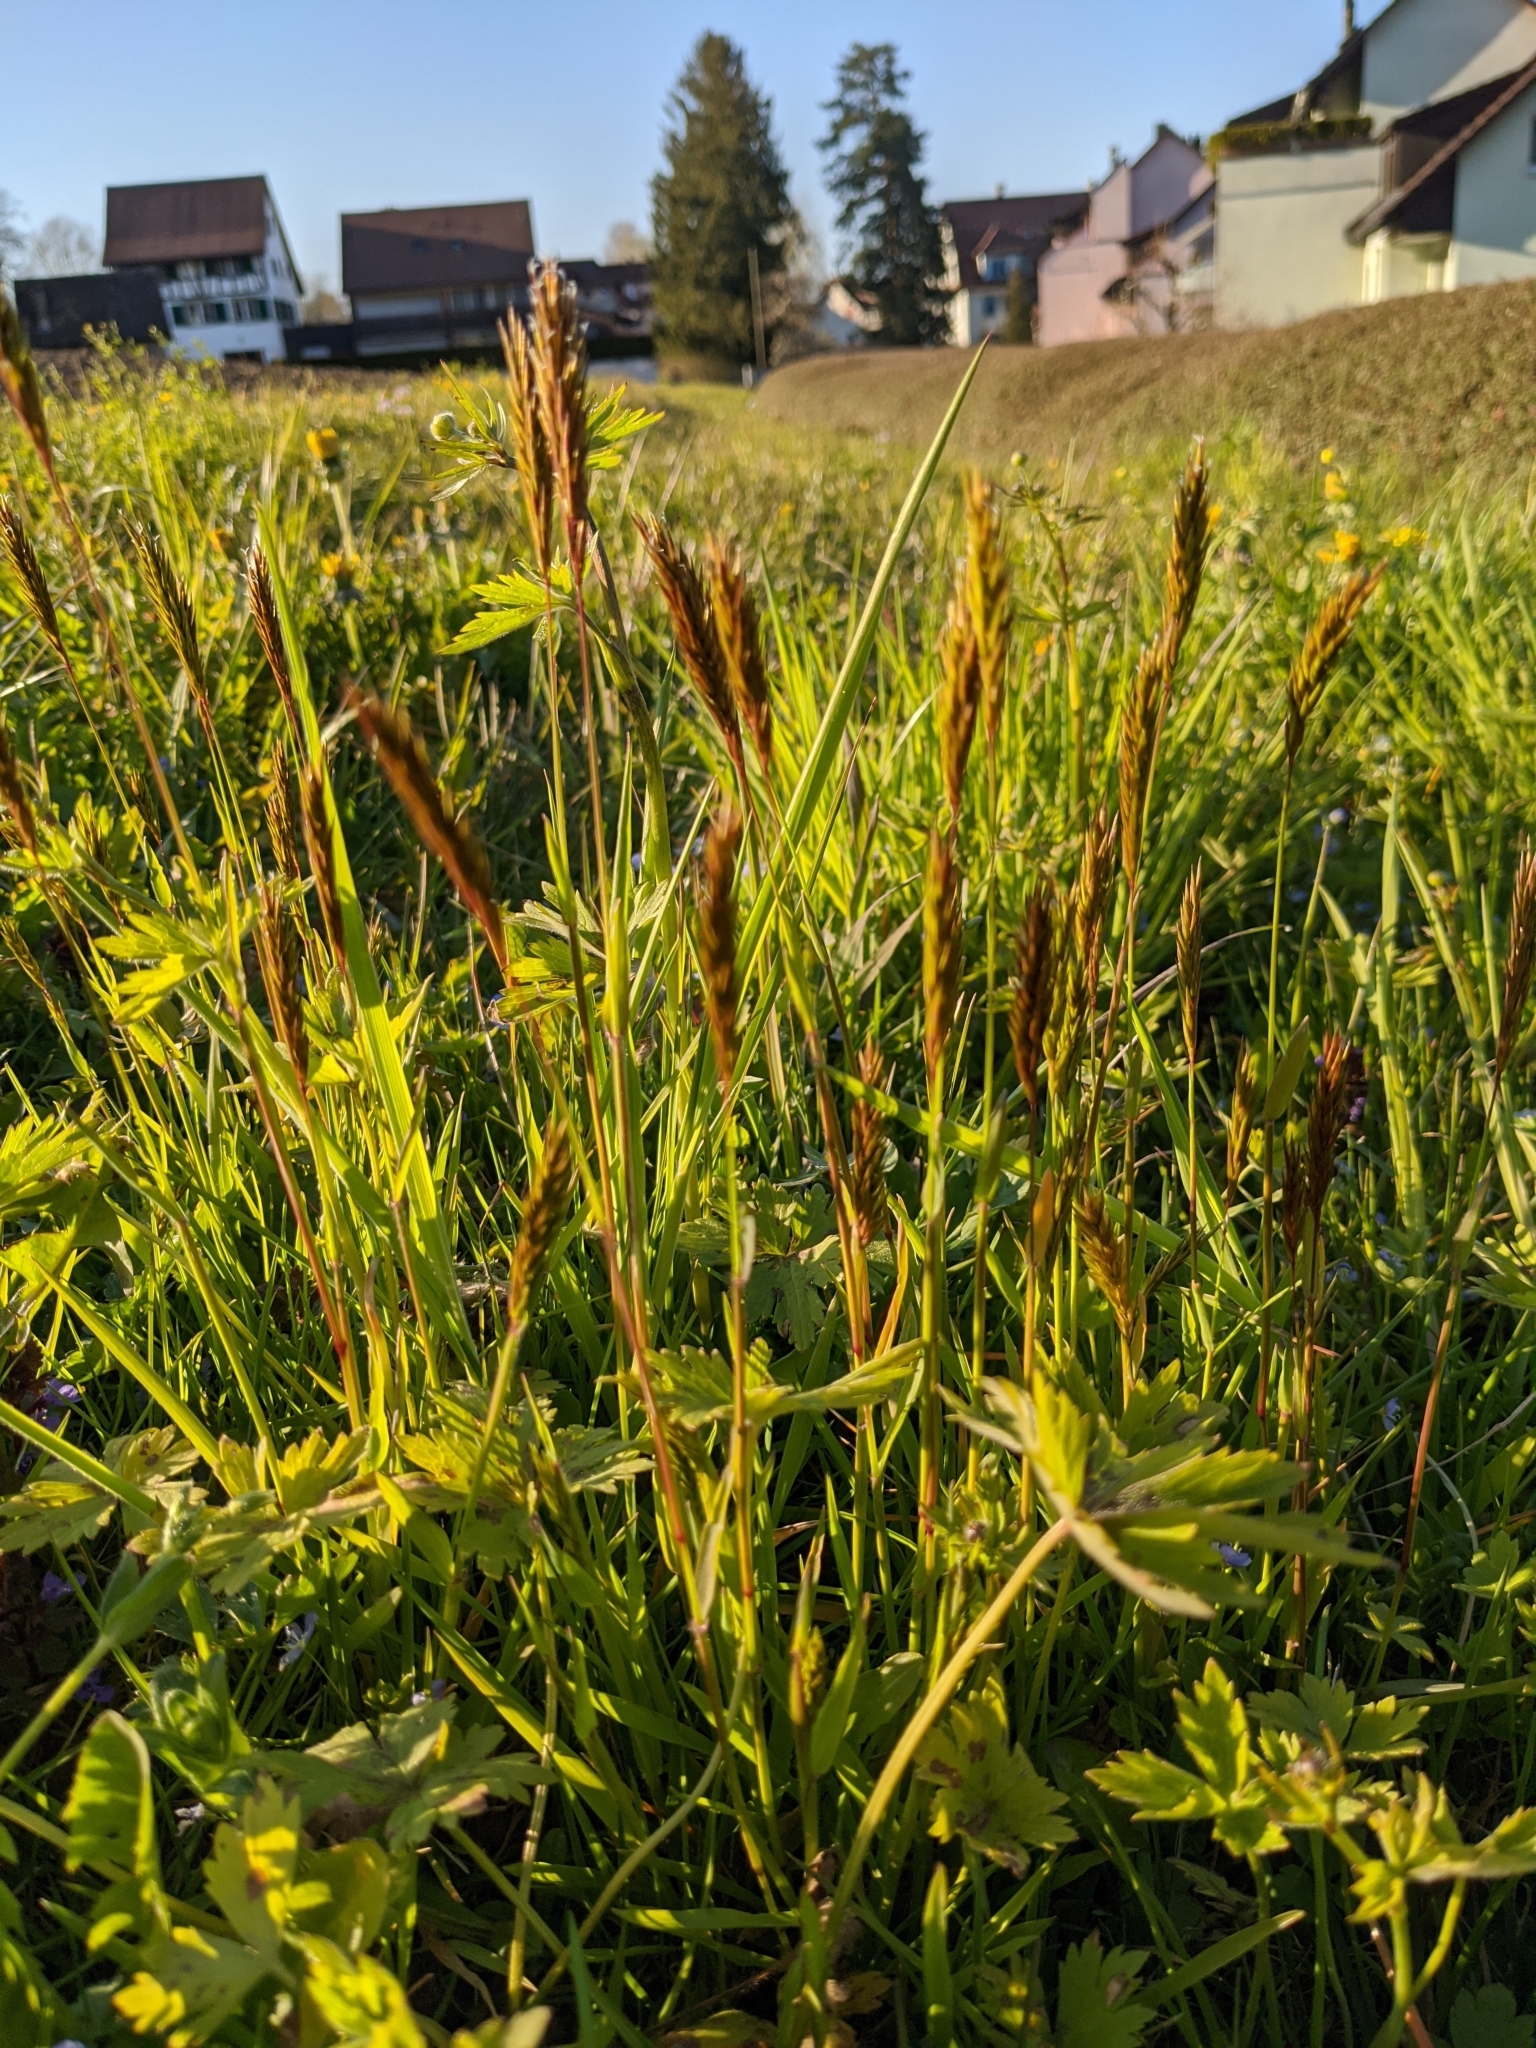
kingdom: Plantae
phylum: Tracheophyta
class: Liliopsida
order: Poales
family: Poaceae
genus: Anthoxanthum
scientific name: Anthoxanthum odoratum
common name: Sweet vernalgrass
